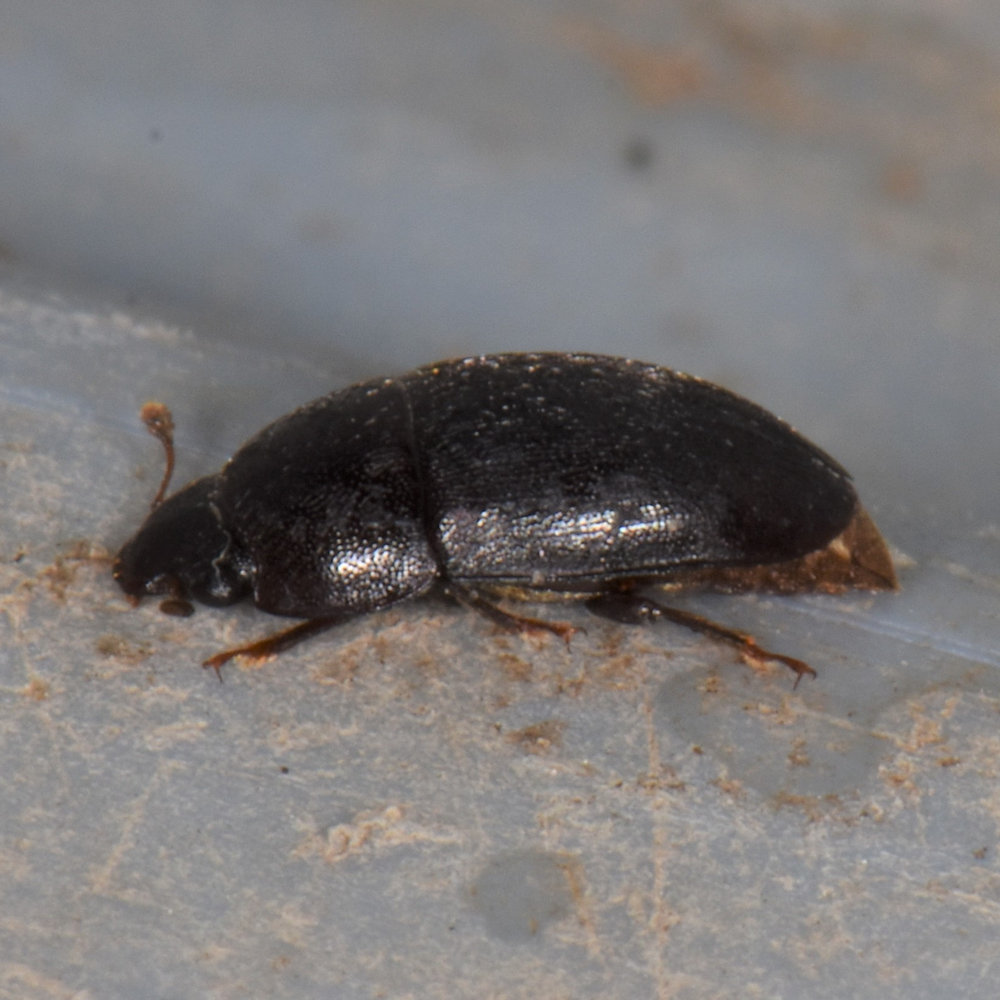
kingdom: Animalia
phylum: Arthropoda
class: Insecta
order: Coleoptera
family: Nitidulidae
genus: Cryptarcha
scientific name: Cryptarcha ampla
